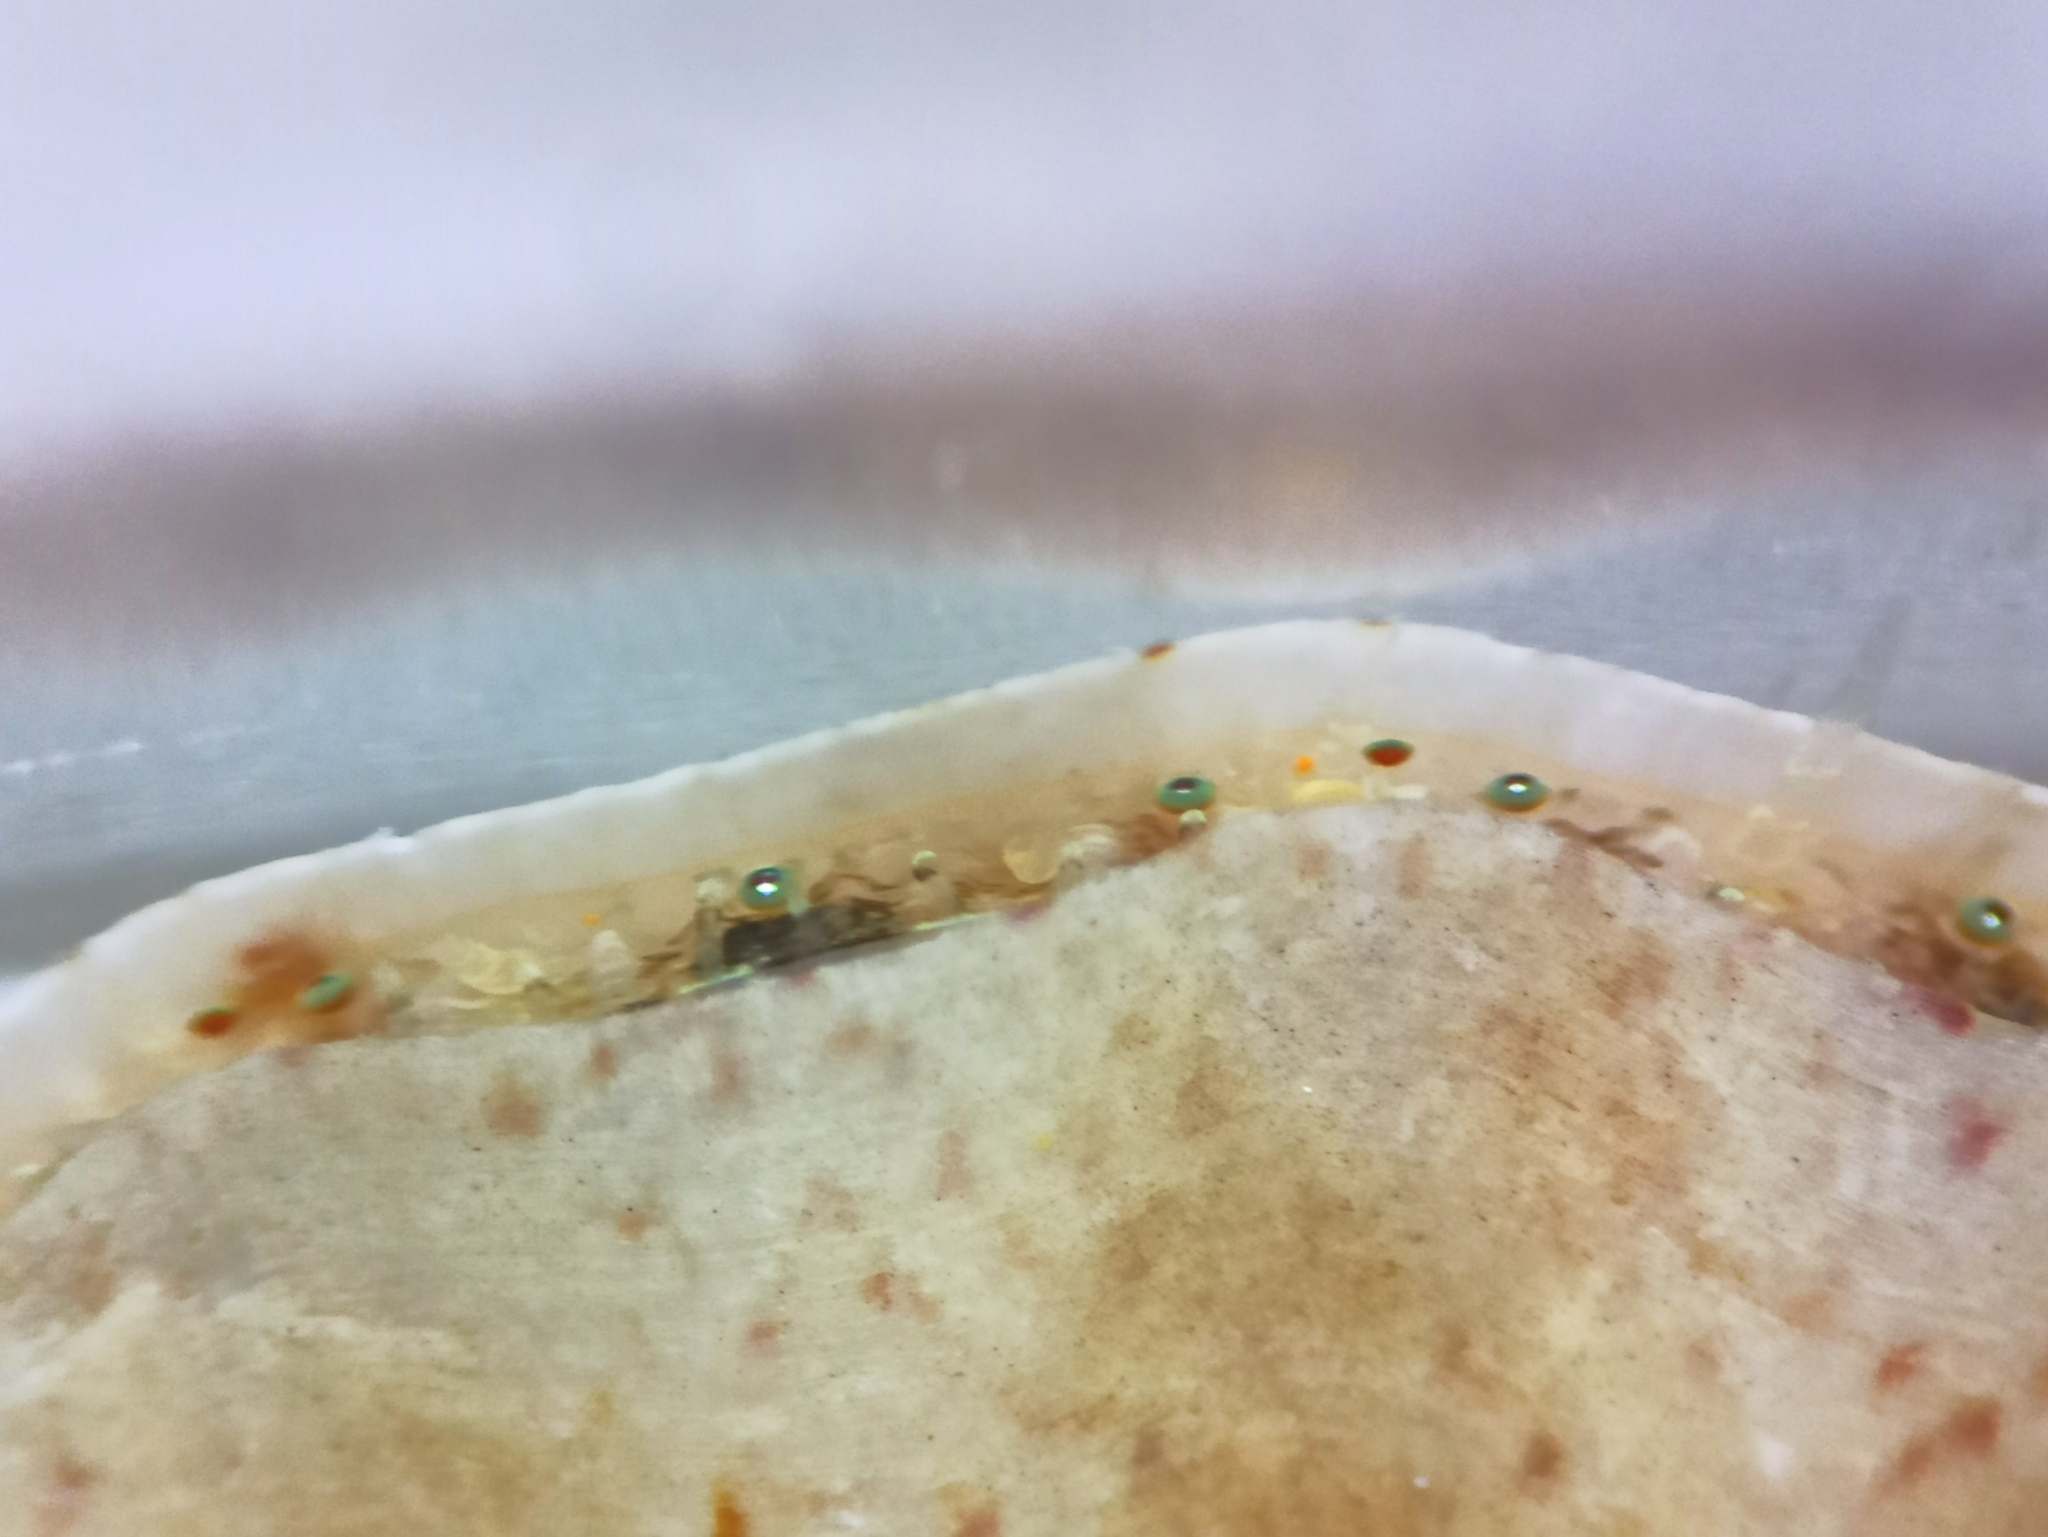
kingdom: Animalia
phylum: Mollusca
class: Bivalvia
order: Pectinida
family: Pectinidae
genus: Flexopecten
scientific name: Flexopecten flexuosus
